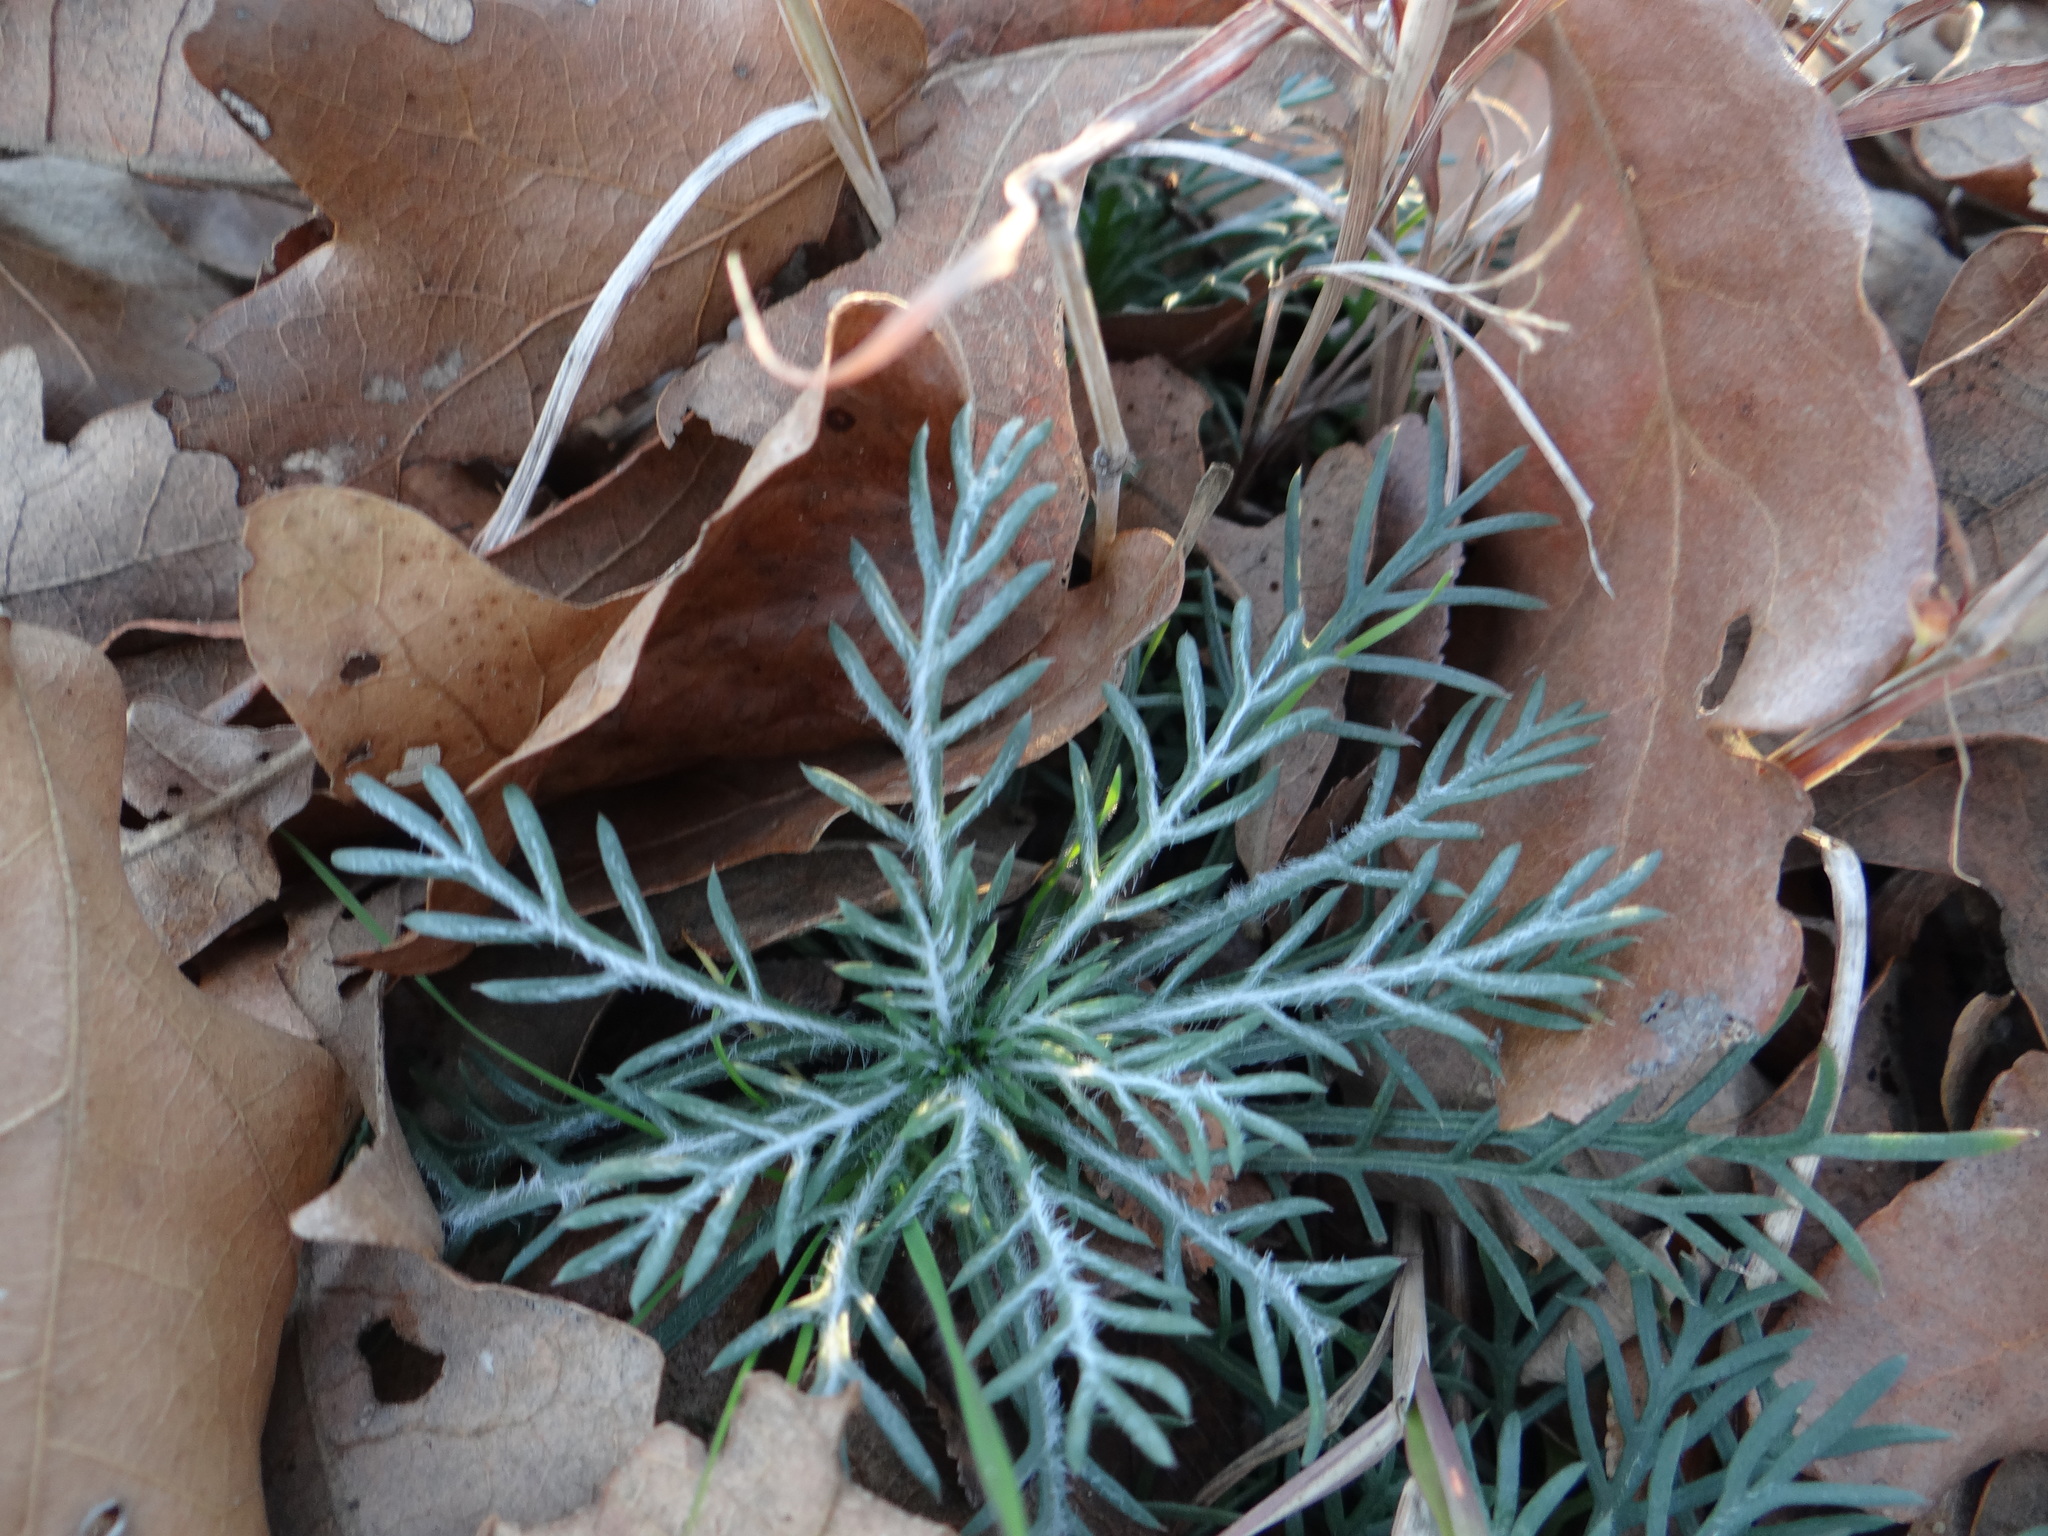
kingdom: Plantae
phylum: Tracheophyta
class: Magnoliopsida
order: Ericales
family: Polemoniaceae
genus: Ipomopsis
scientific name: Ipomopsis rubra
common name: Skyrocket
